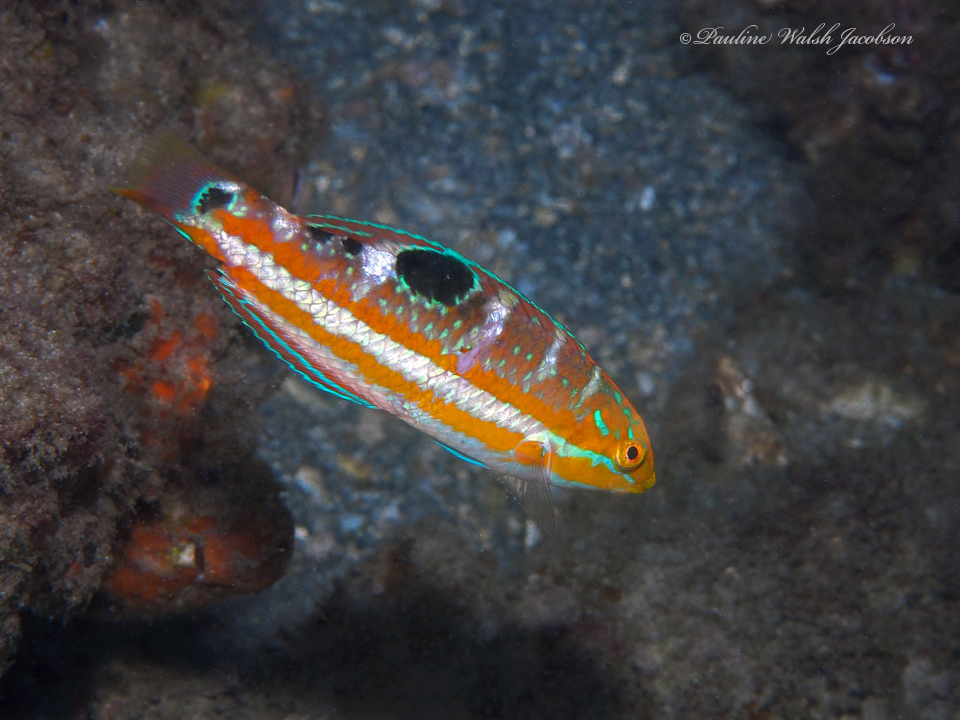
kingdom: Animalia
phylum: Chordata
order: Perciformes
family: Labridae
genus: Halichoeres
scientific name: Halichoeres radiatus
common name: Puddingwife
